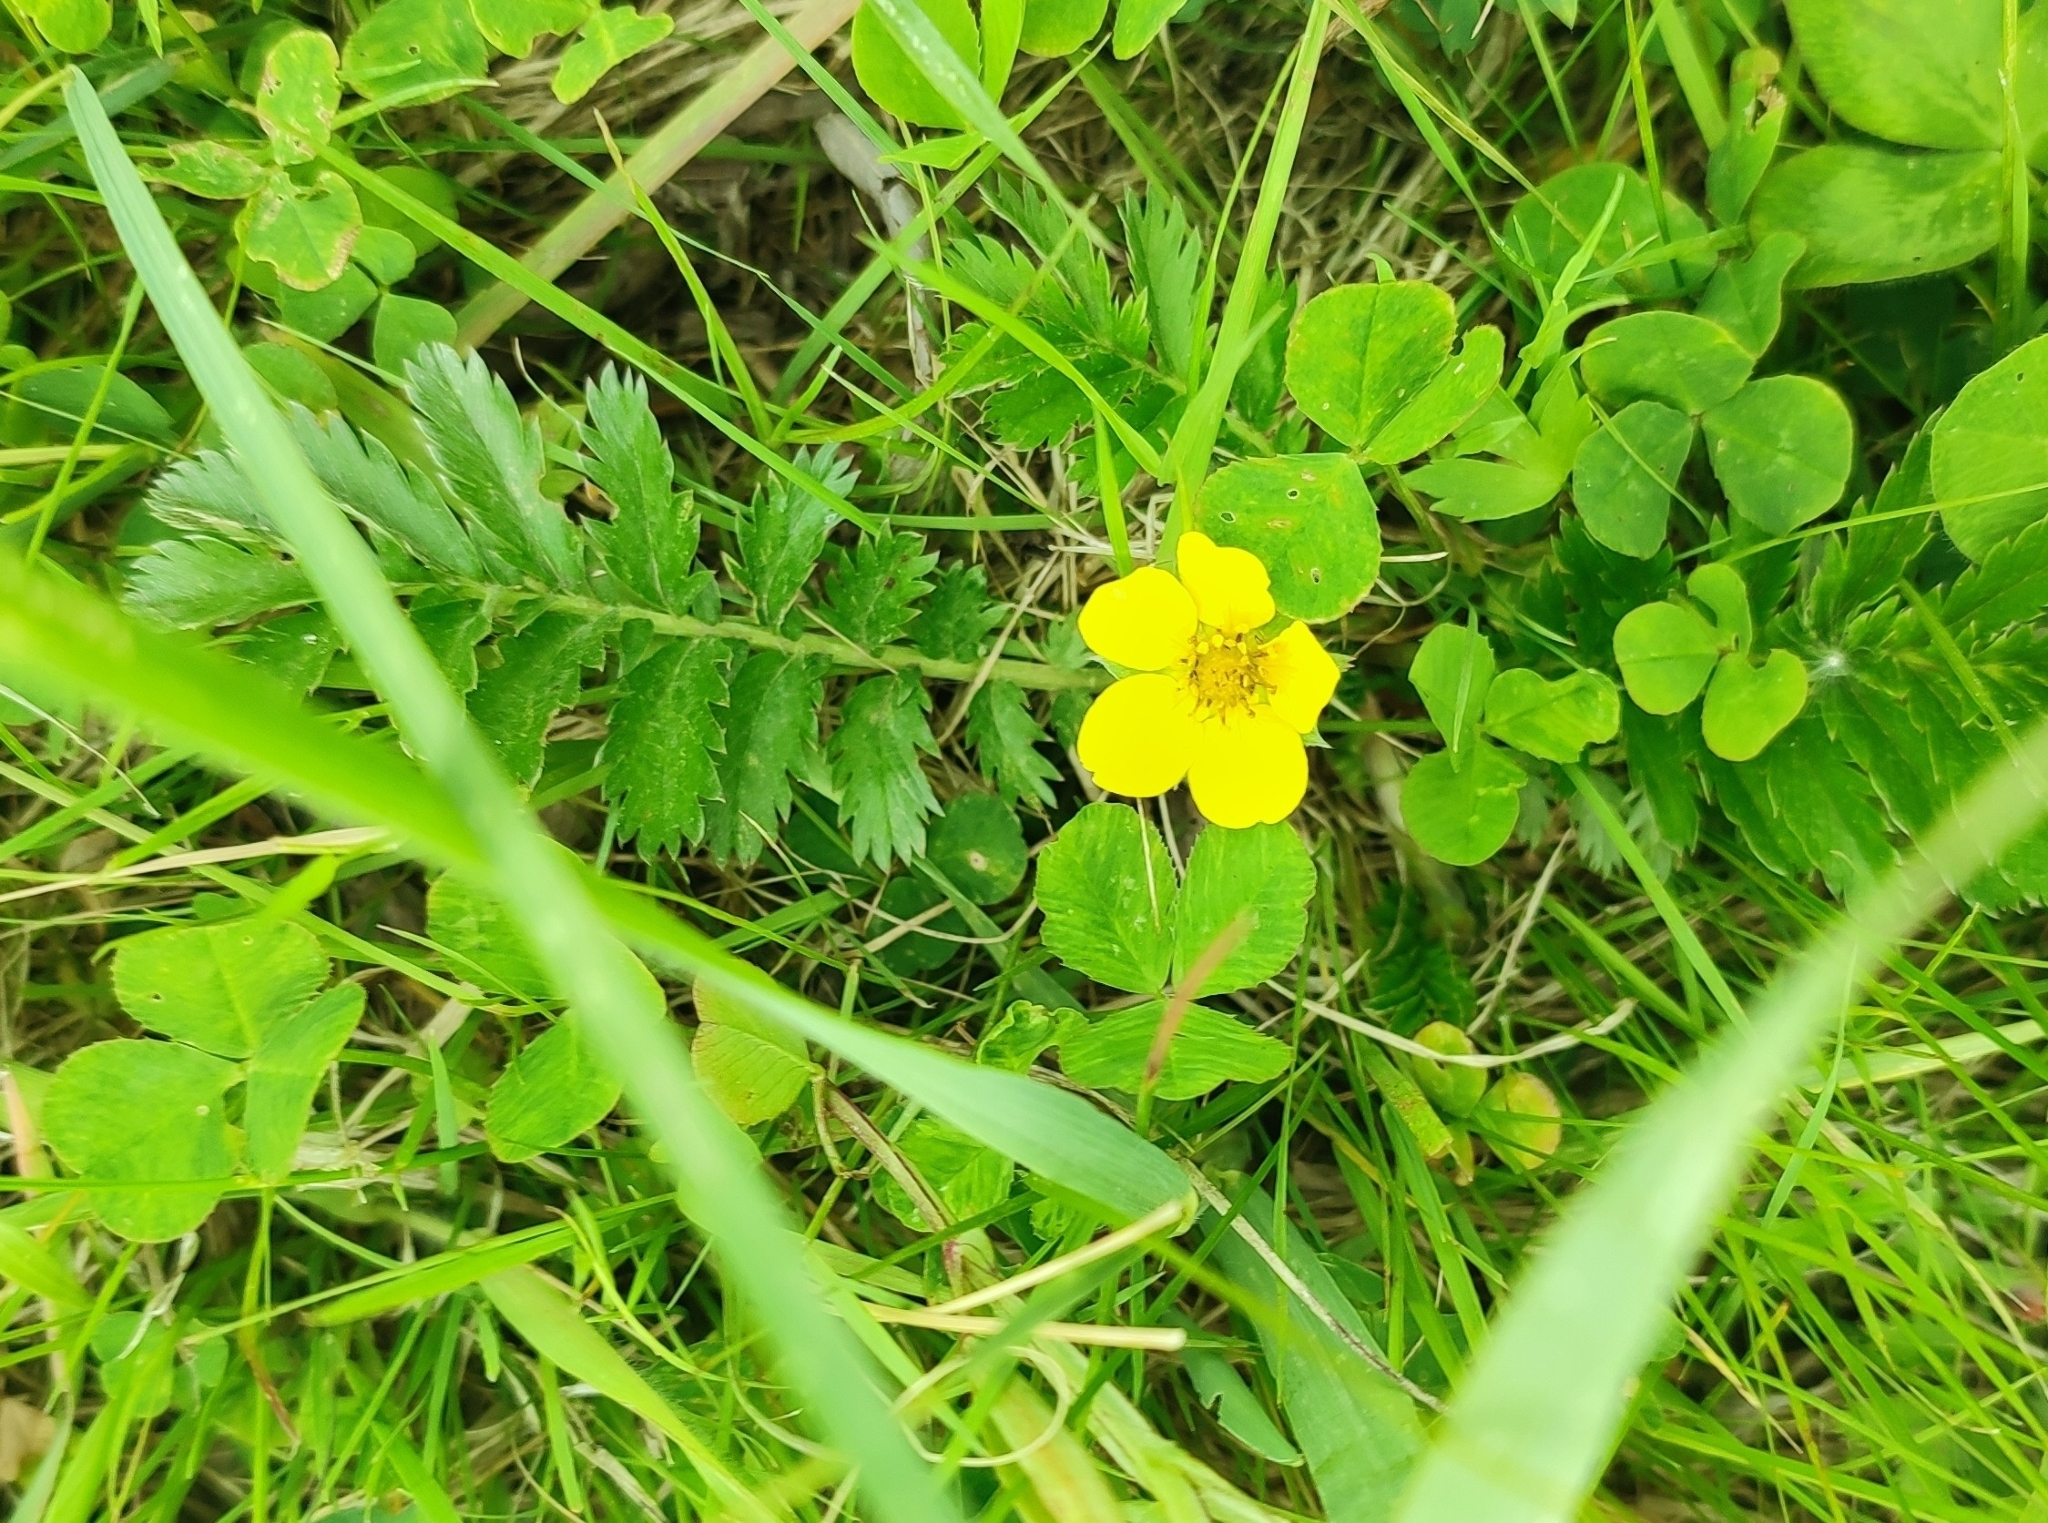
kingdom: Plantae
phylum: Tracheophyta
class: Magnoliopsida
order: Rosales
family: Rosaceae
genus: Argentina
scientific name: Argentina anserina
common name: Common silverweed
